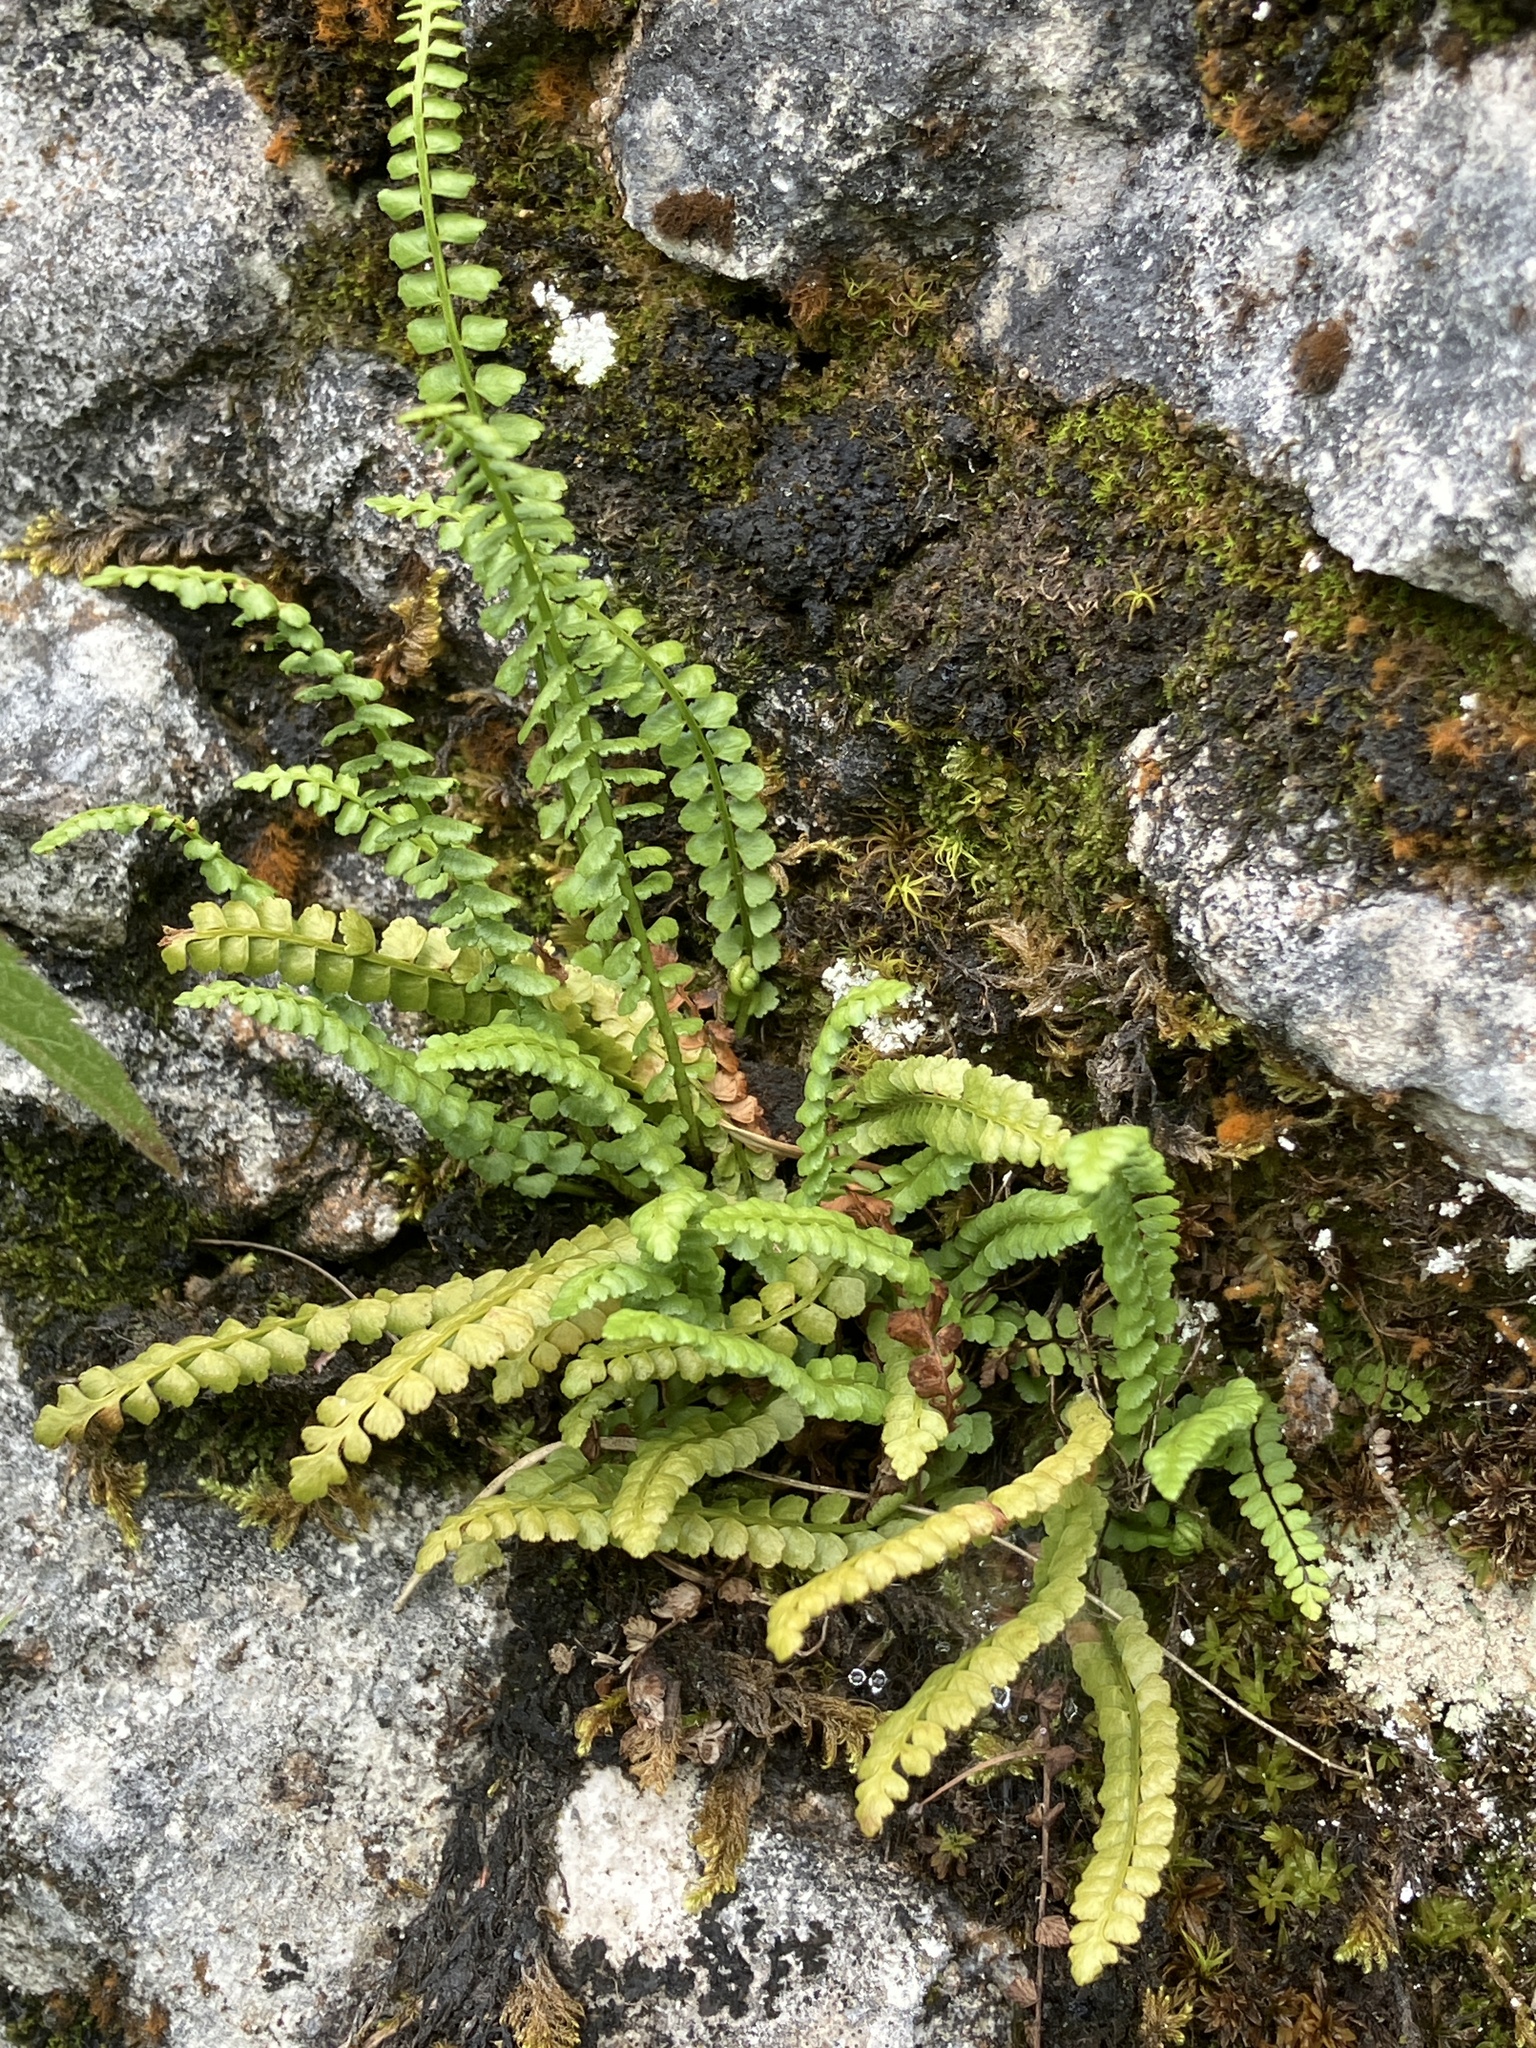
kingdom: Plantae
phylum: Tracheophyta
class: Polypodiopsida
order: Polypodiales
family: Aspleniaceae
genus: Asplenium
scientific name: Asplenium viride
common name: Green spleenwort
